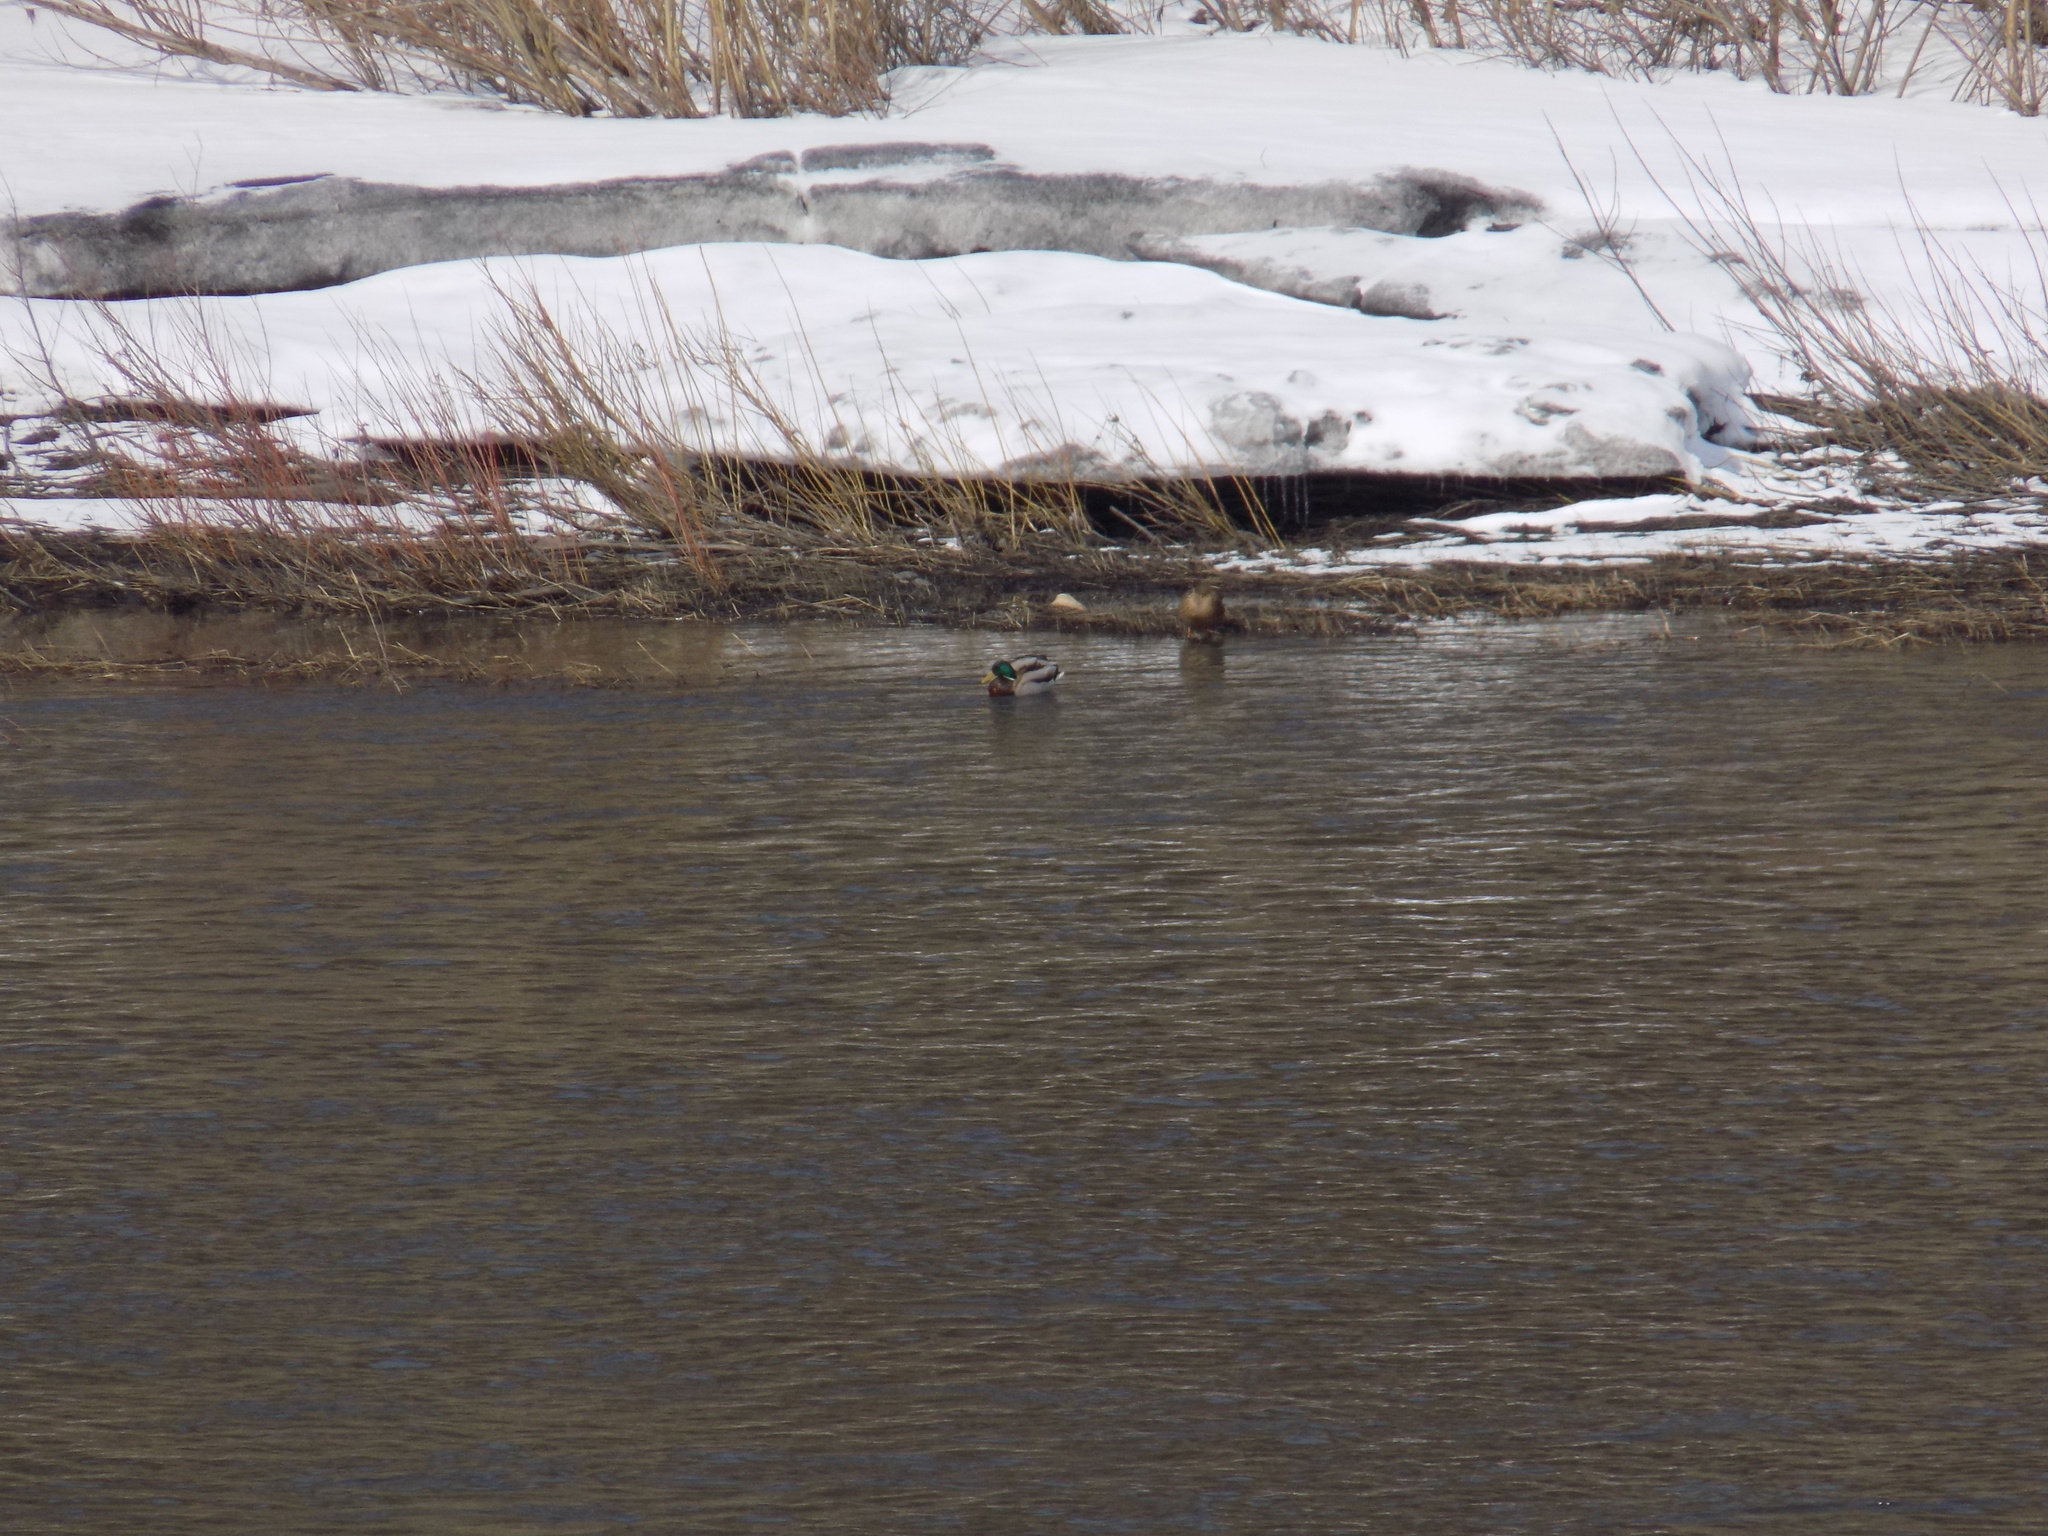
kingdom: Animalia
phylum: Chordata
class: Aves
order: Anseriformes
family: Anatidae
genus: Anas
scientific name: Anas platyrhynchos
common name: Mallard
